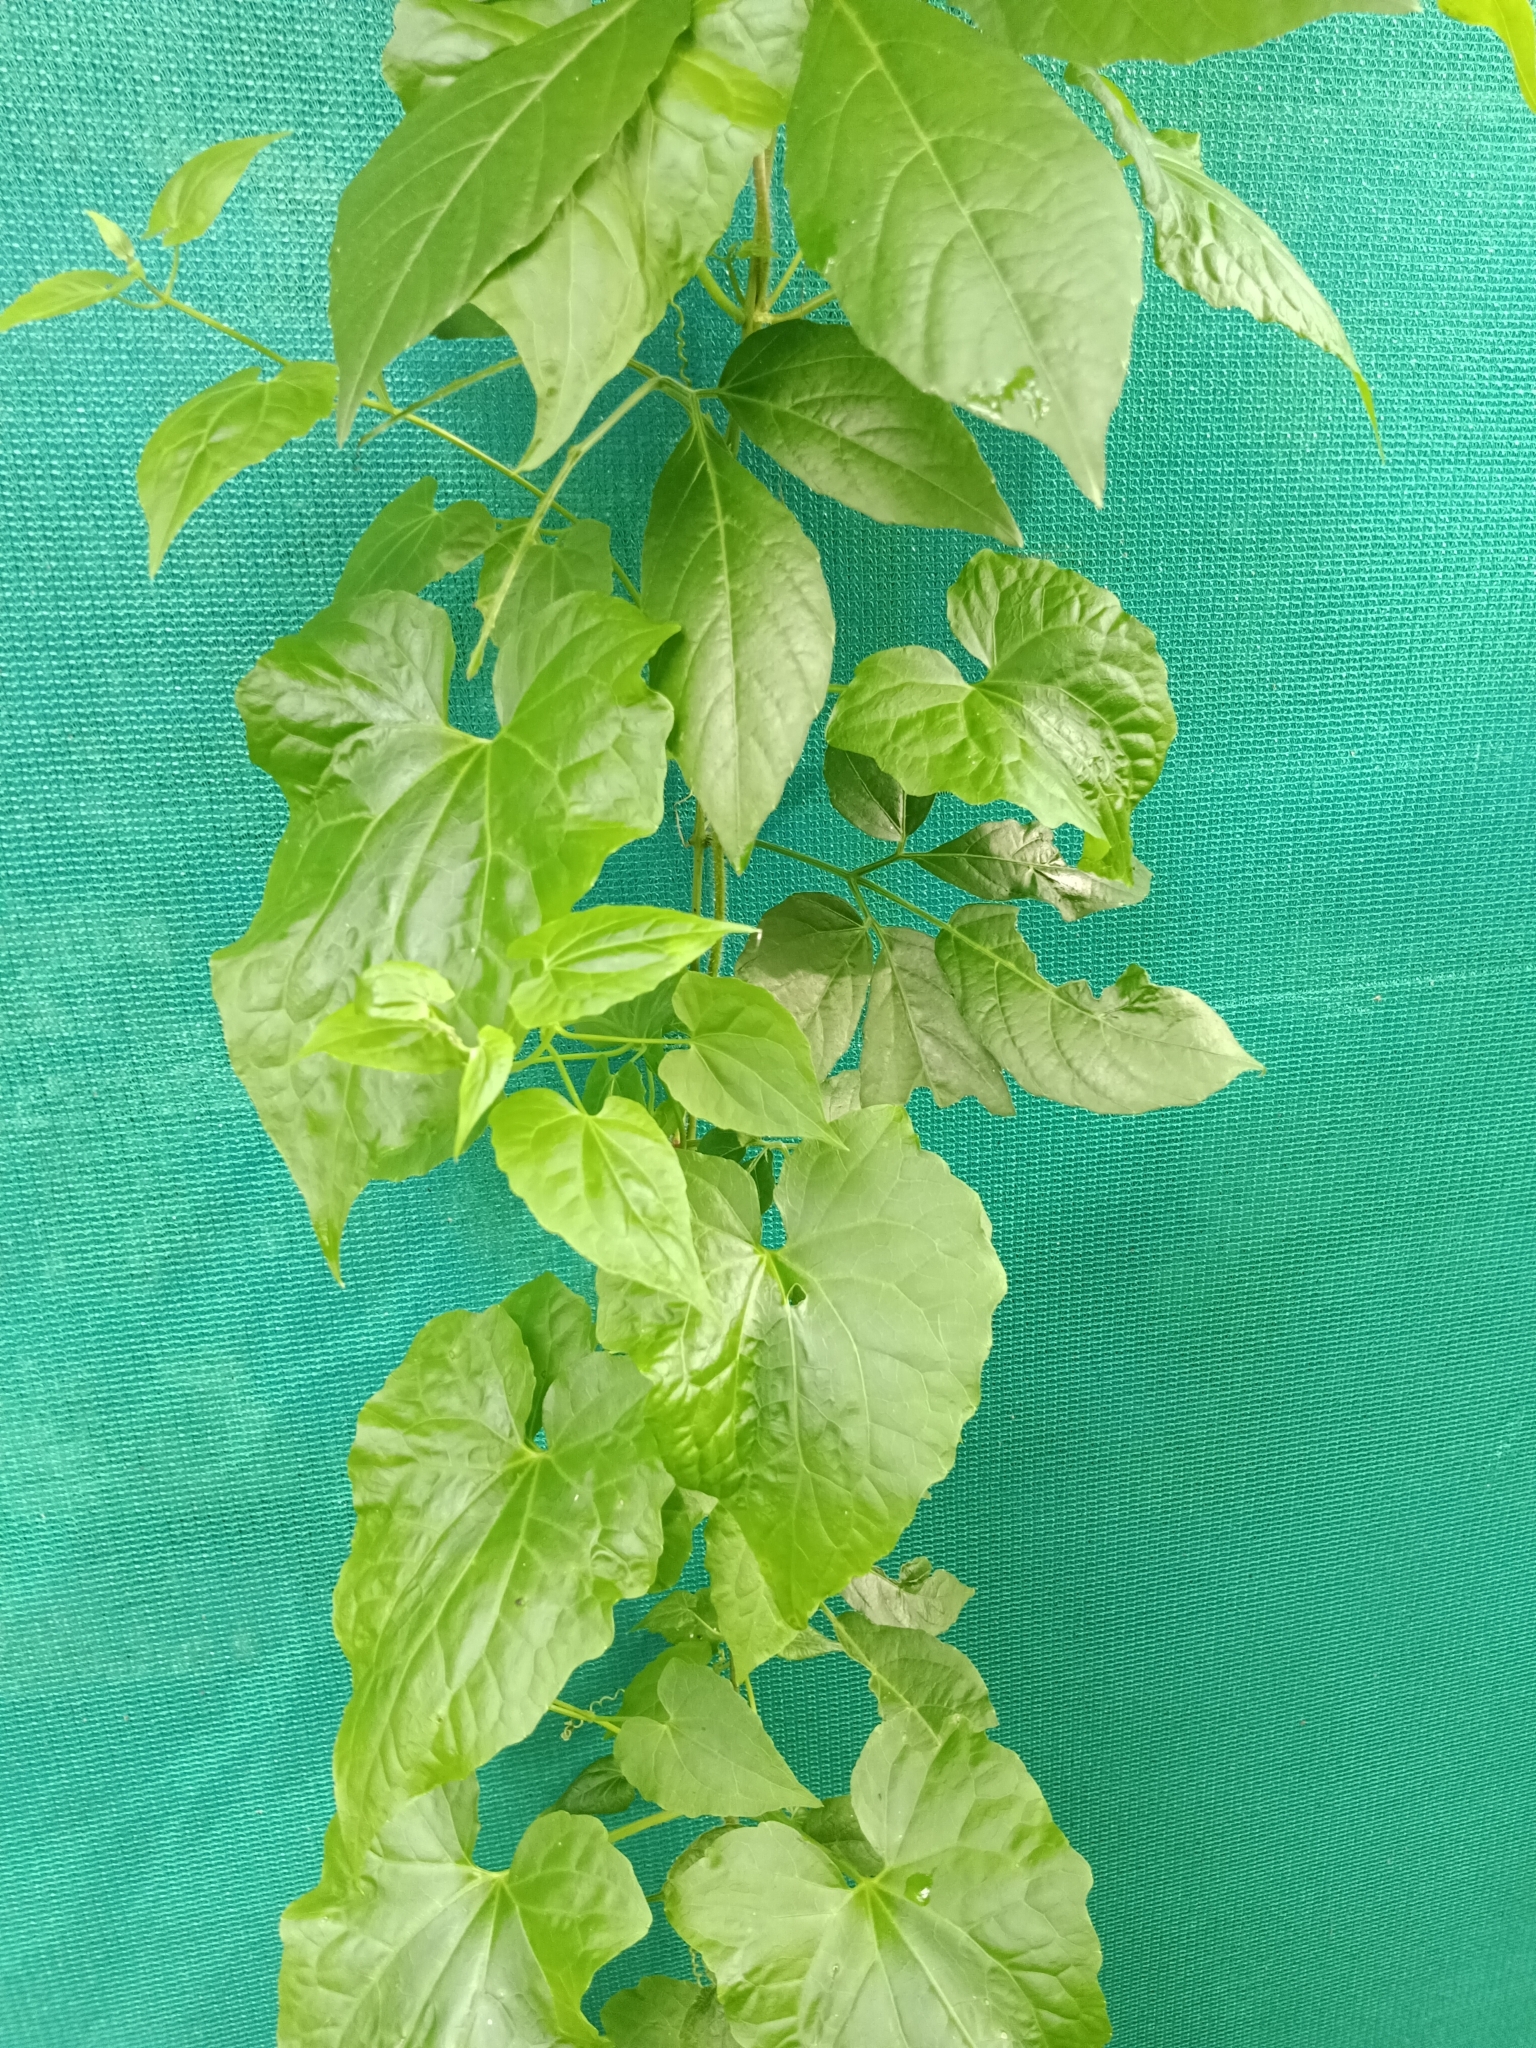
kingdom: Plantae
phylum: Tracheophyta
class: Magnoliopsida
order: Asterales
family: Asteraceae
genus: Mikania
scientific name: Mikania micrantha
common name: Mile-a-minute
